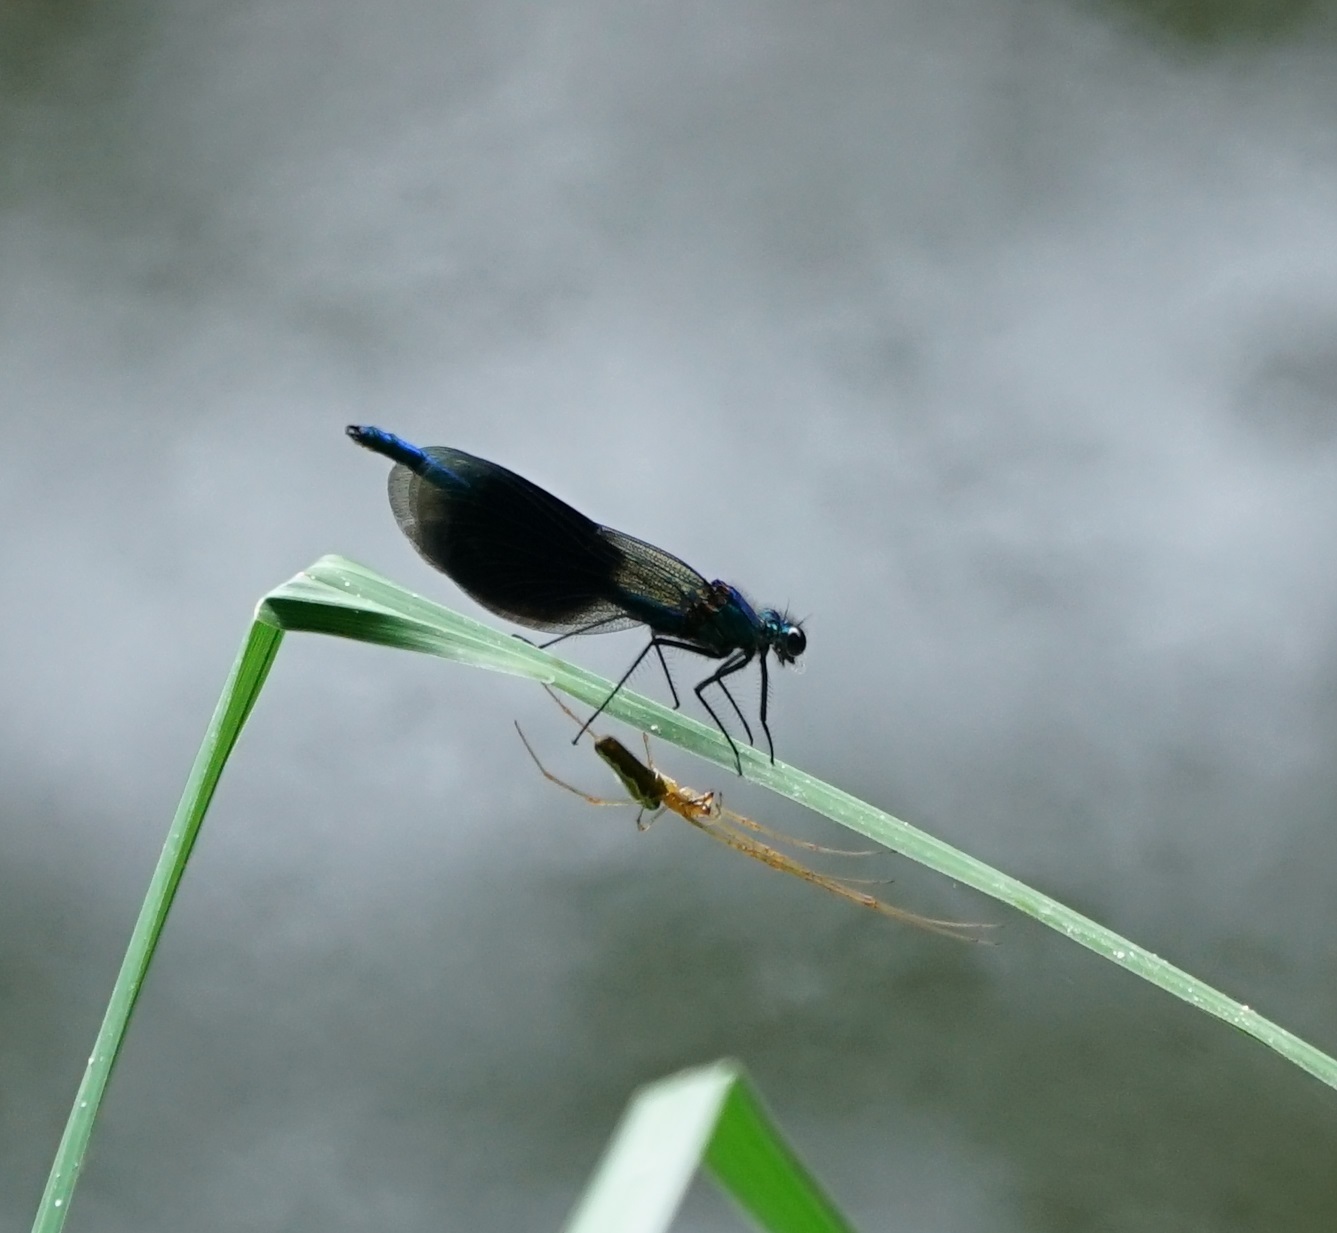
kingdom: Animalia
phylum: Arthropoda
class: Insecta
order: Odonata
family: Calopterygidae
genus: Calopteryx
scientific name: Calopteryx splendens
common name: Banded demoiselle
